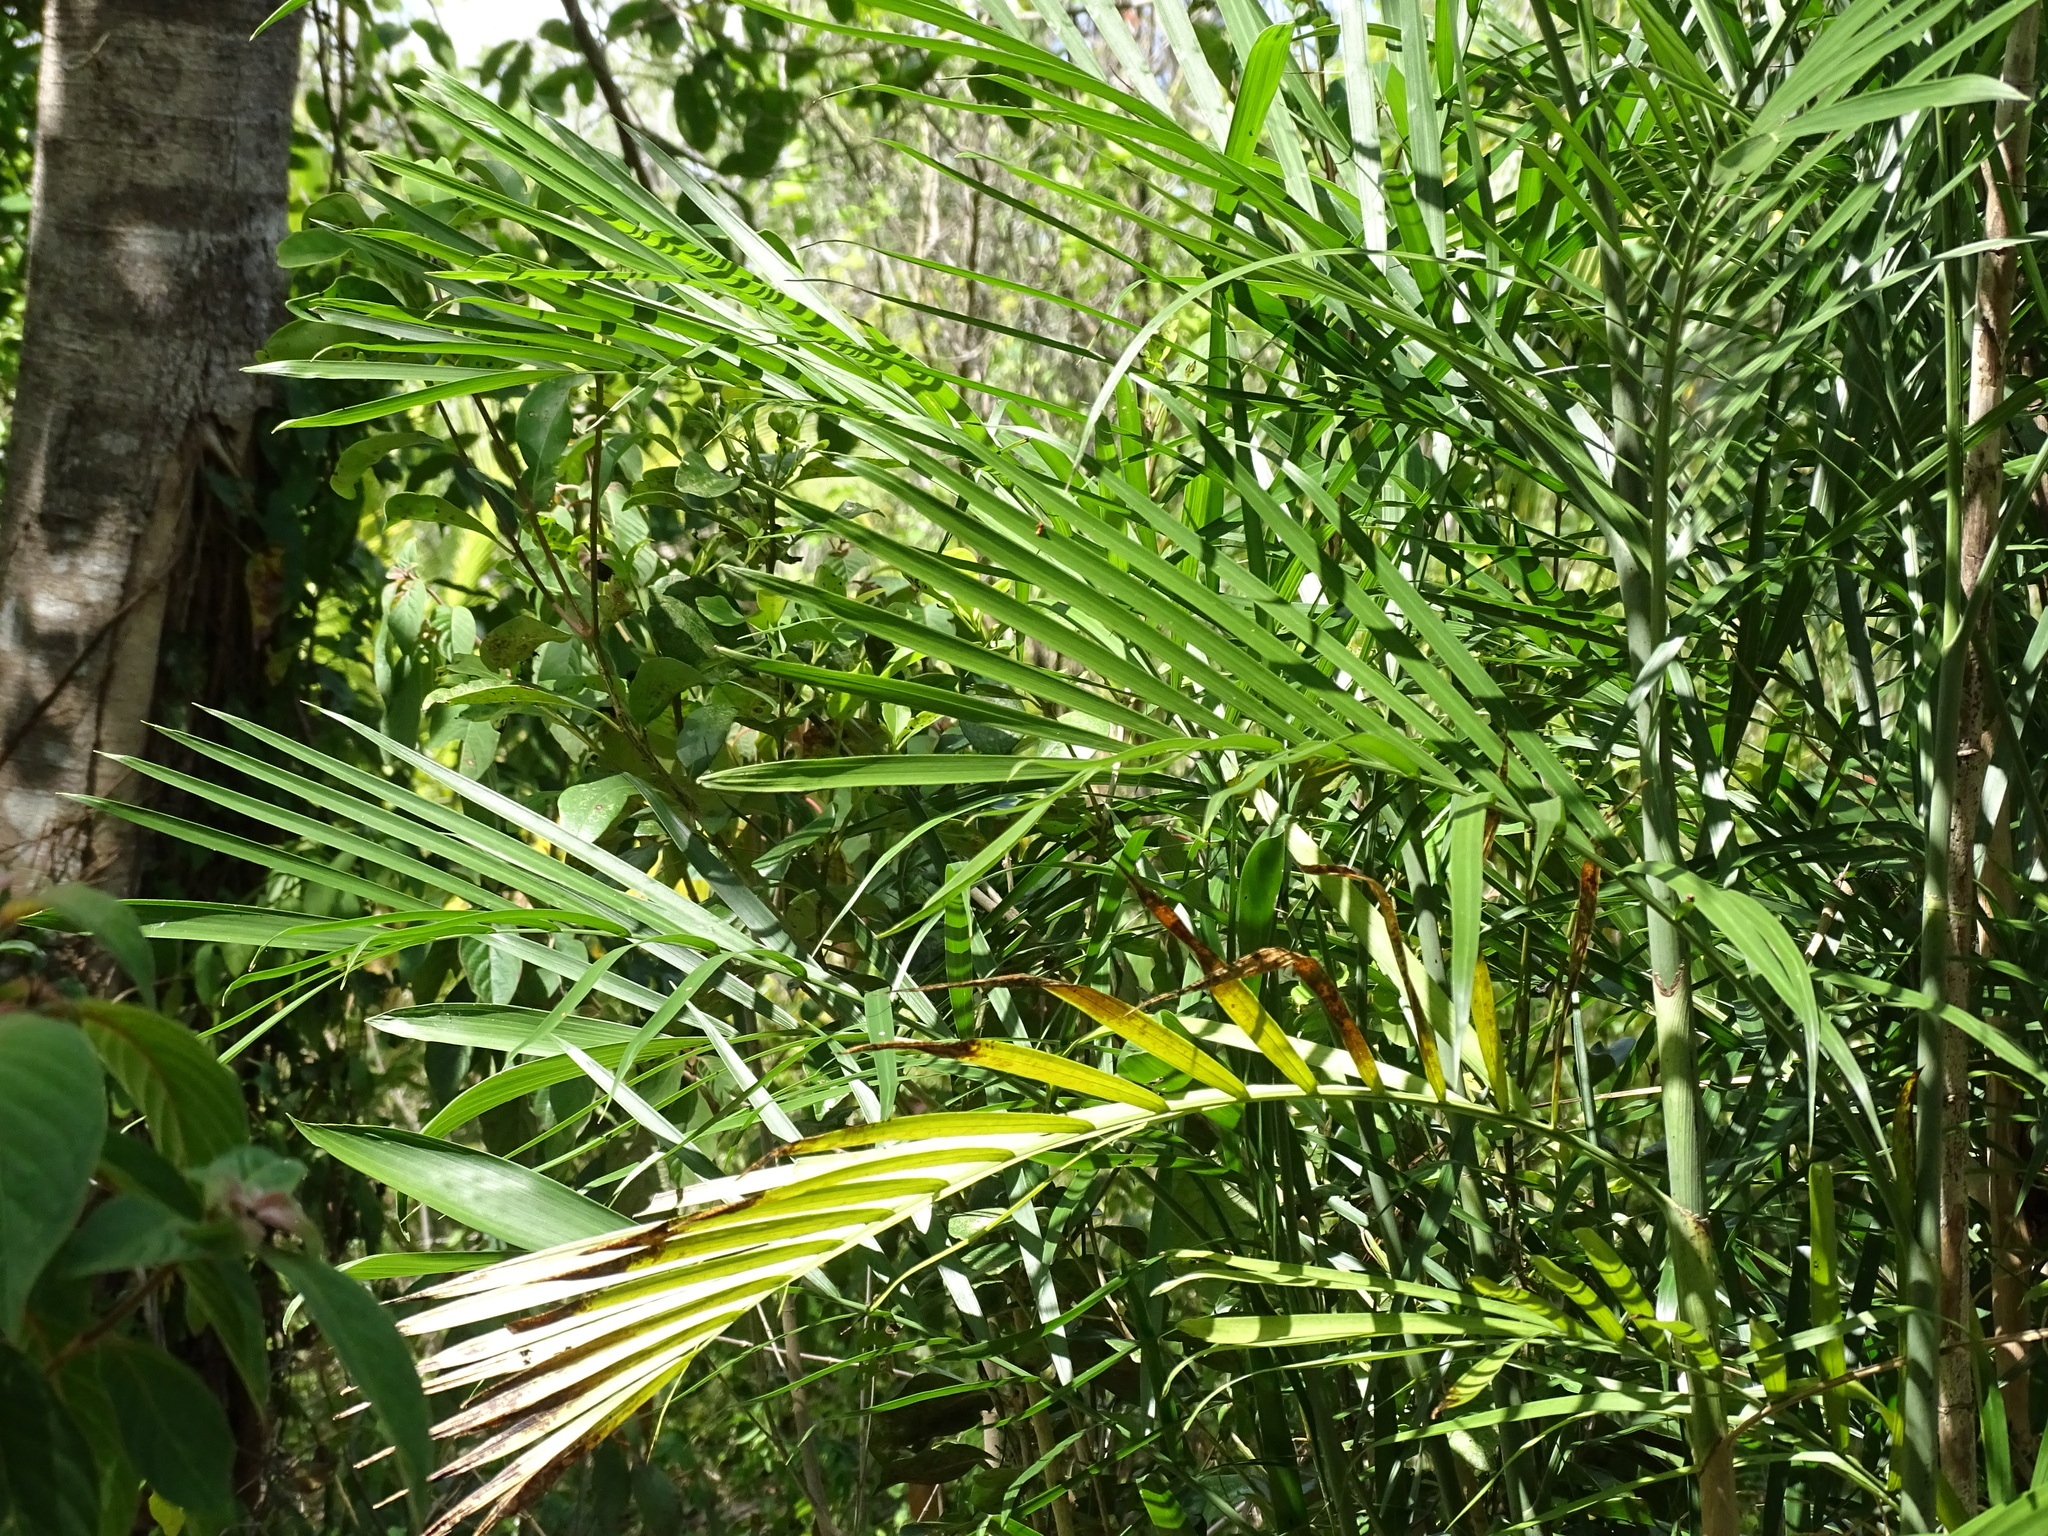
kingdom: Plantae
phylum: Tracheophyta
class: Liliopsida
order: Arecales
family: Arecaceae
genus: Chamaedorea
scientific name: Chamaedorea seifrizii
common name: Seifriz's chamaedorea
